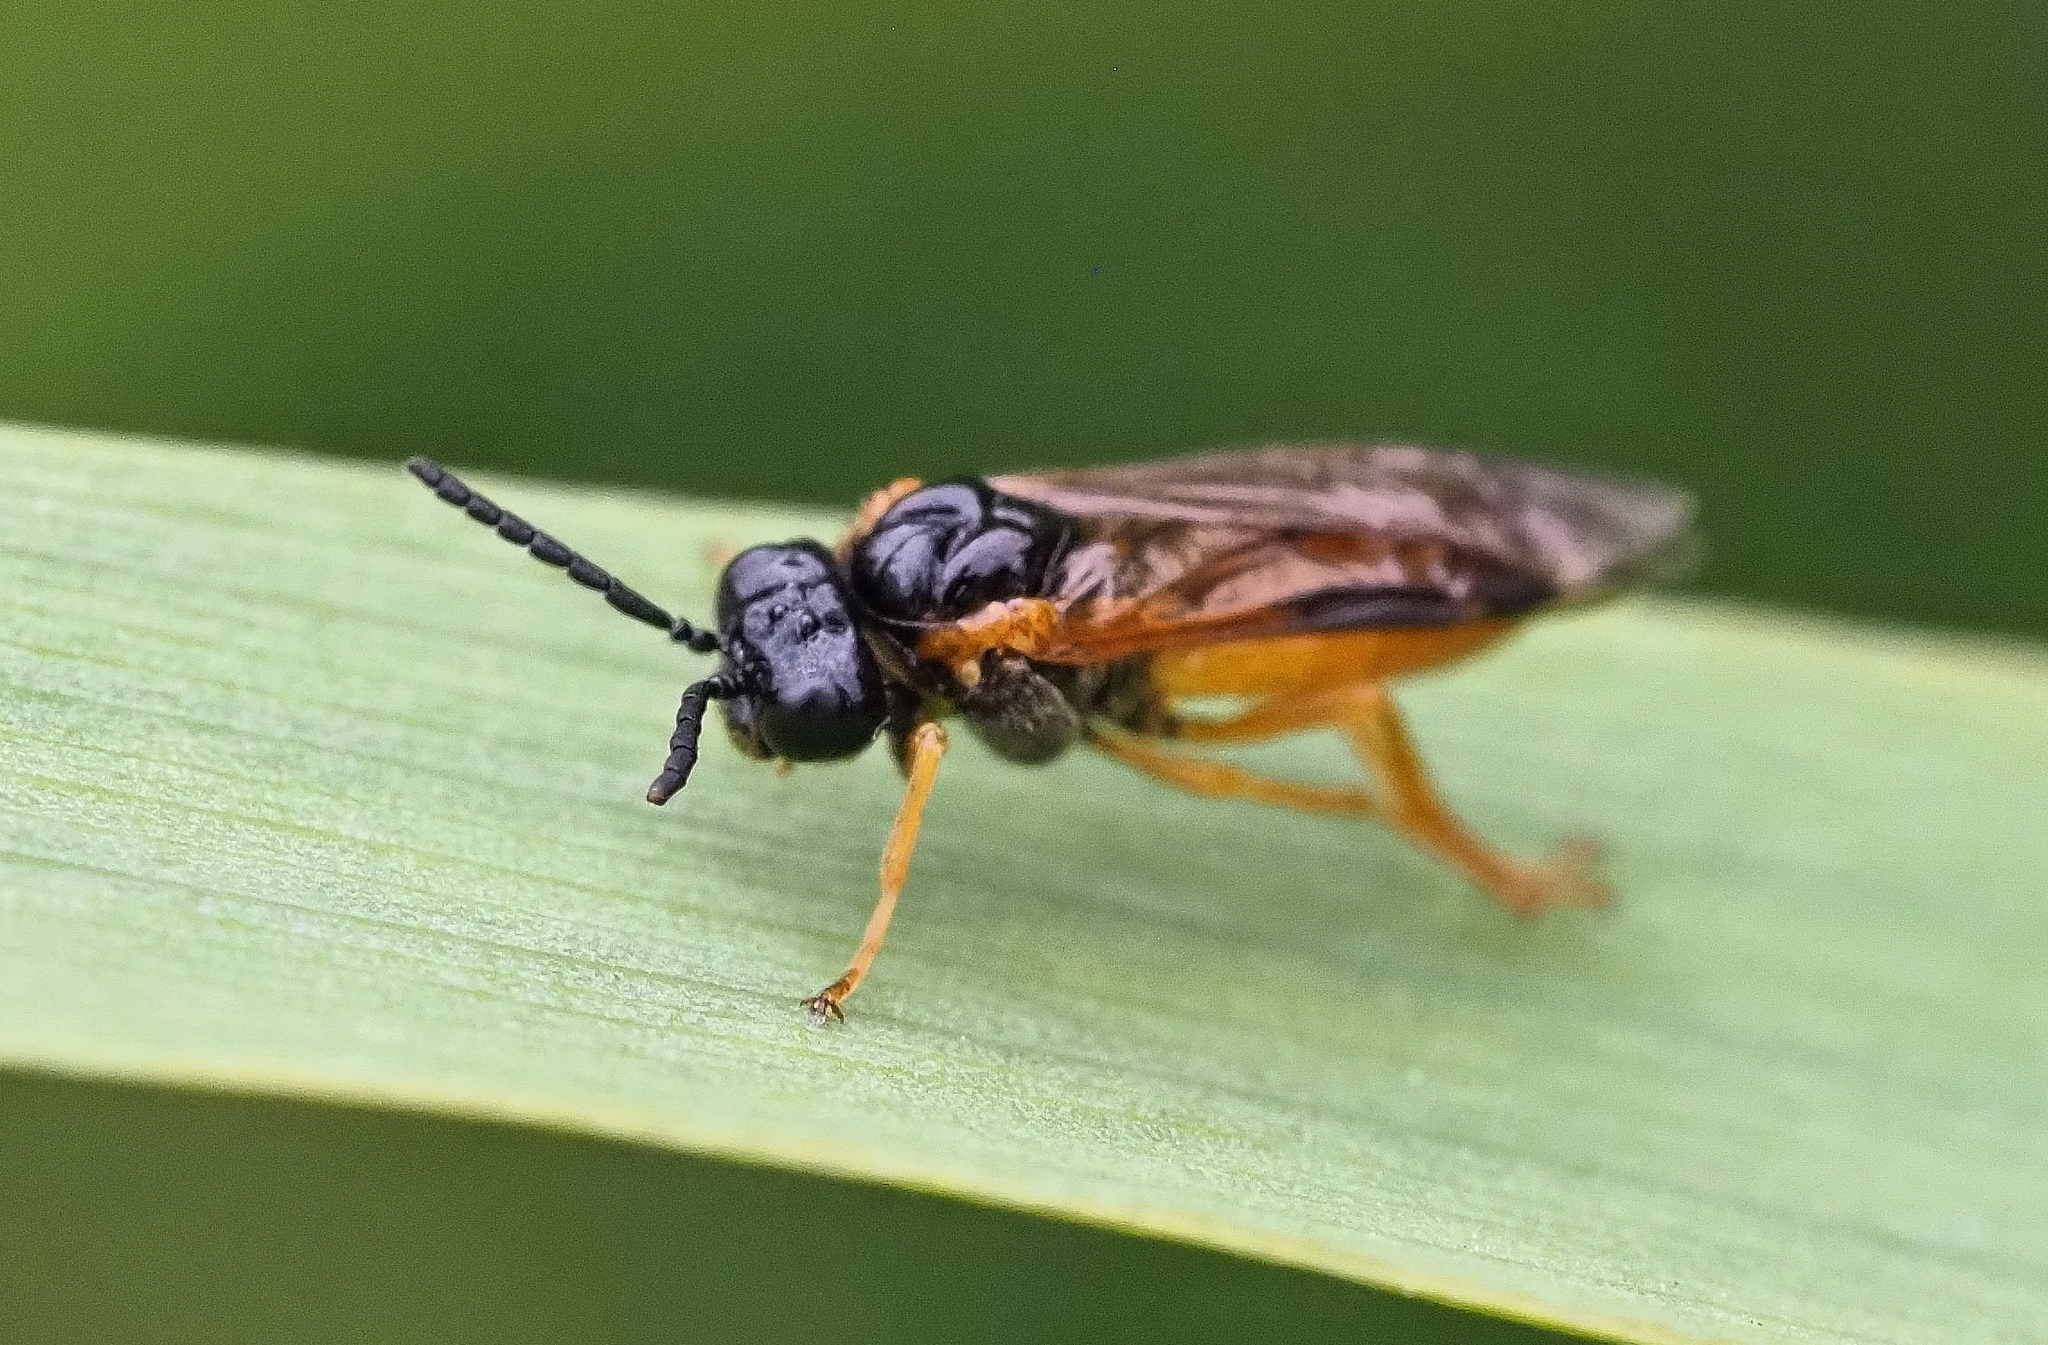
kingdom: Animalia
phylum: Arthropoda
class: Insecta
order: Hymenoptera
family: Tenthredinidae
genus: Selandria
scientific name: Selandria serva
